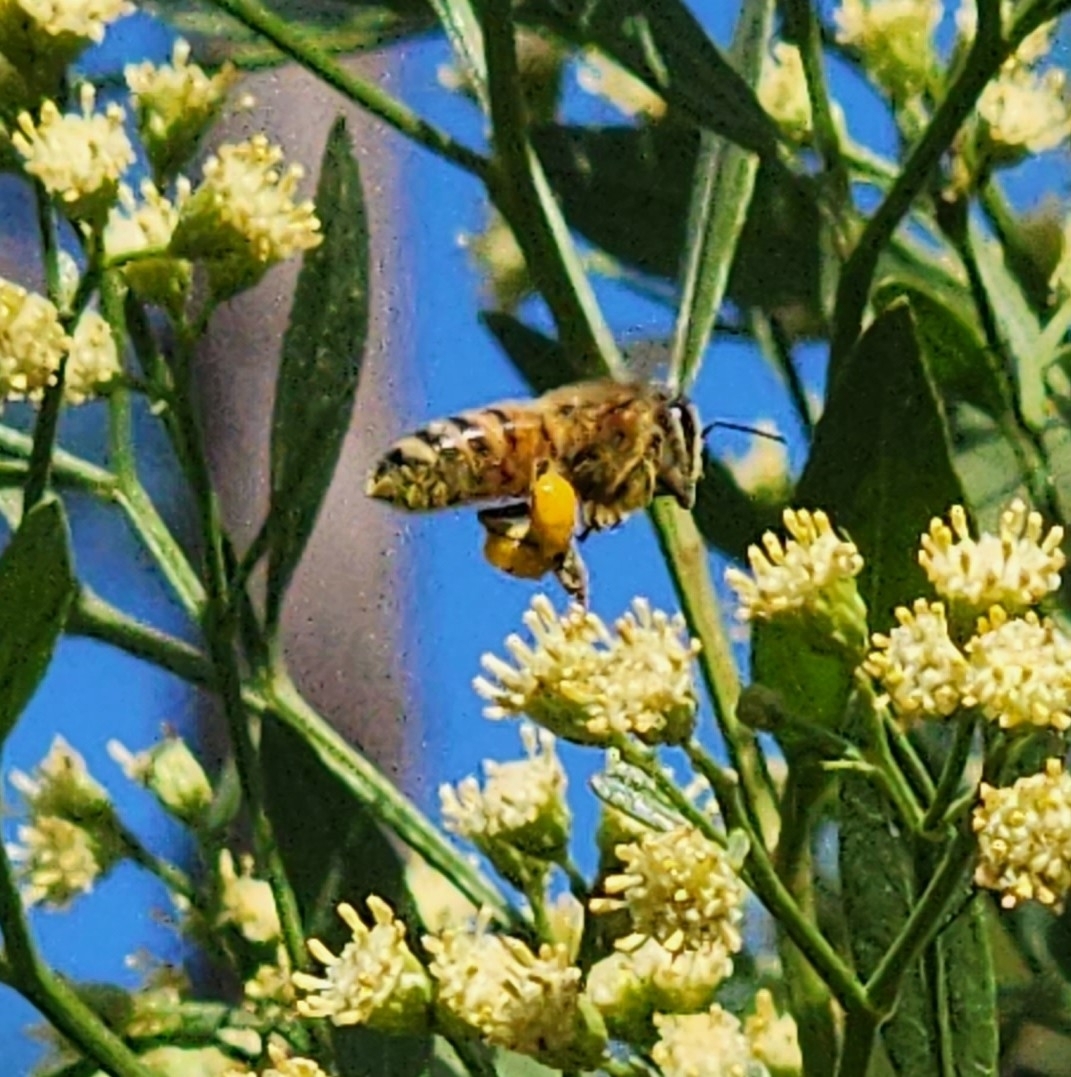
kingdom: Animalia
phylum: Arthropoda
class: Insecta
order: Hymenoptera
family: Apidae
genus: Apis
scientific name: Apis mellifera
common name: Honey bee
